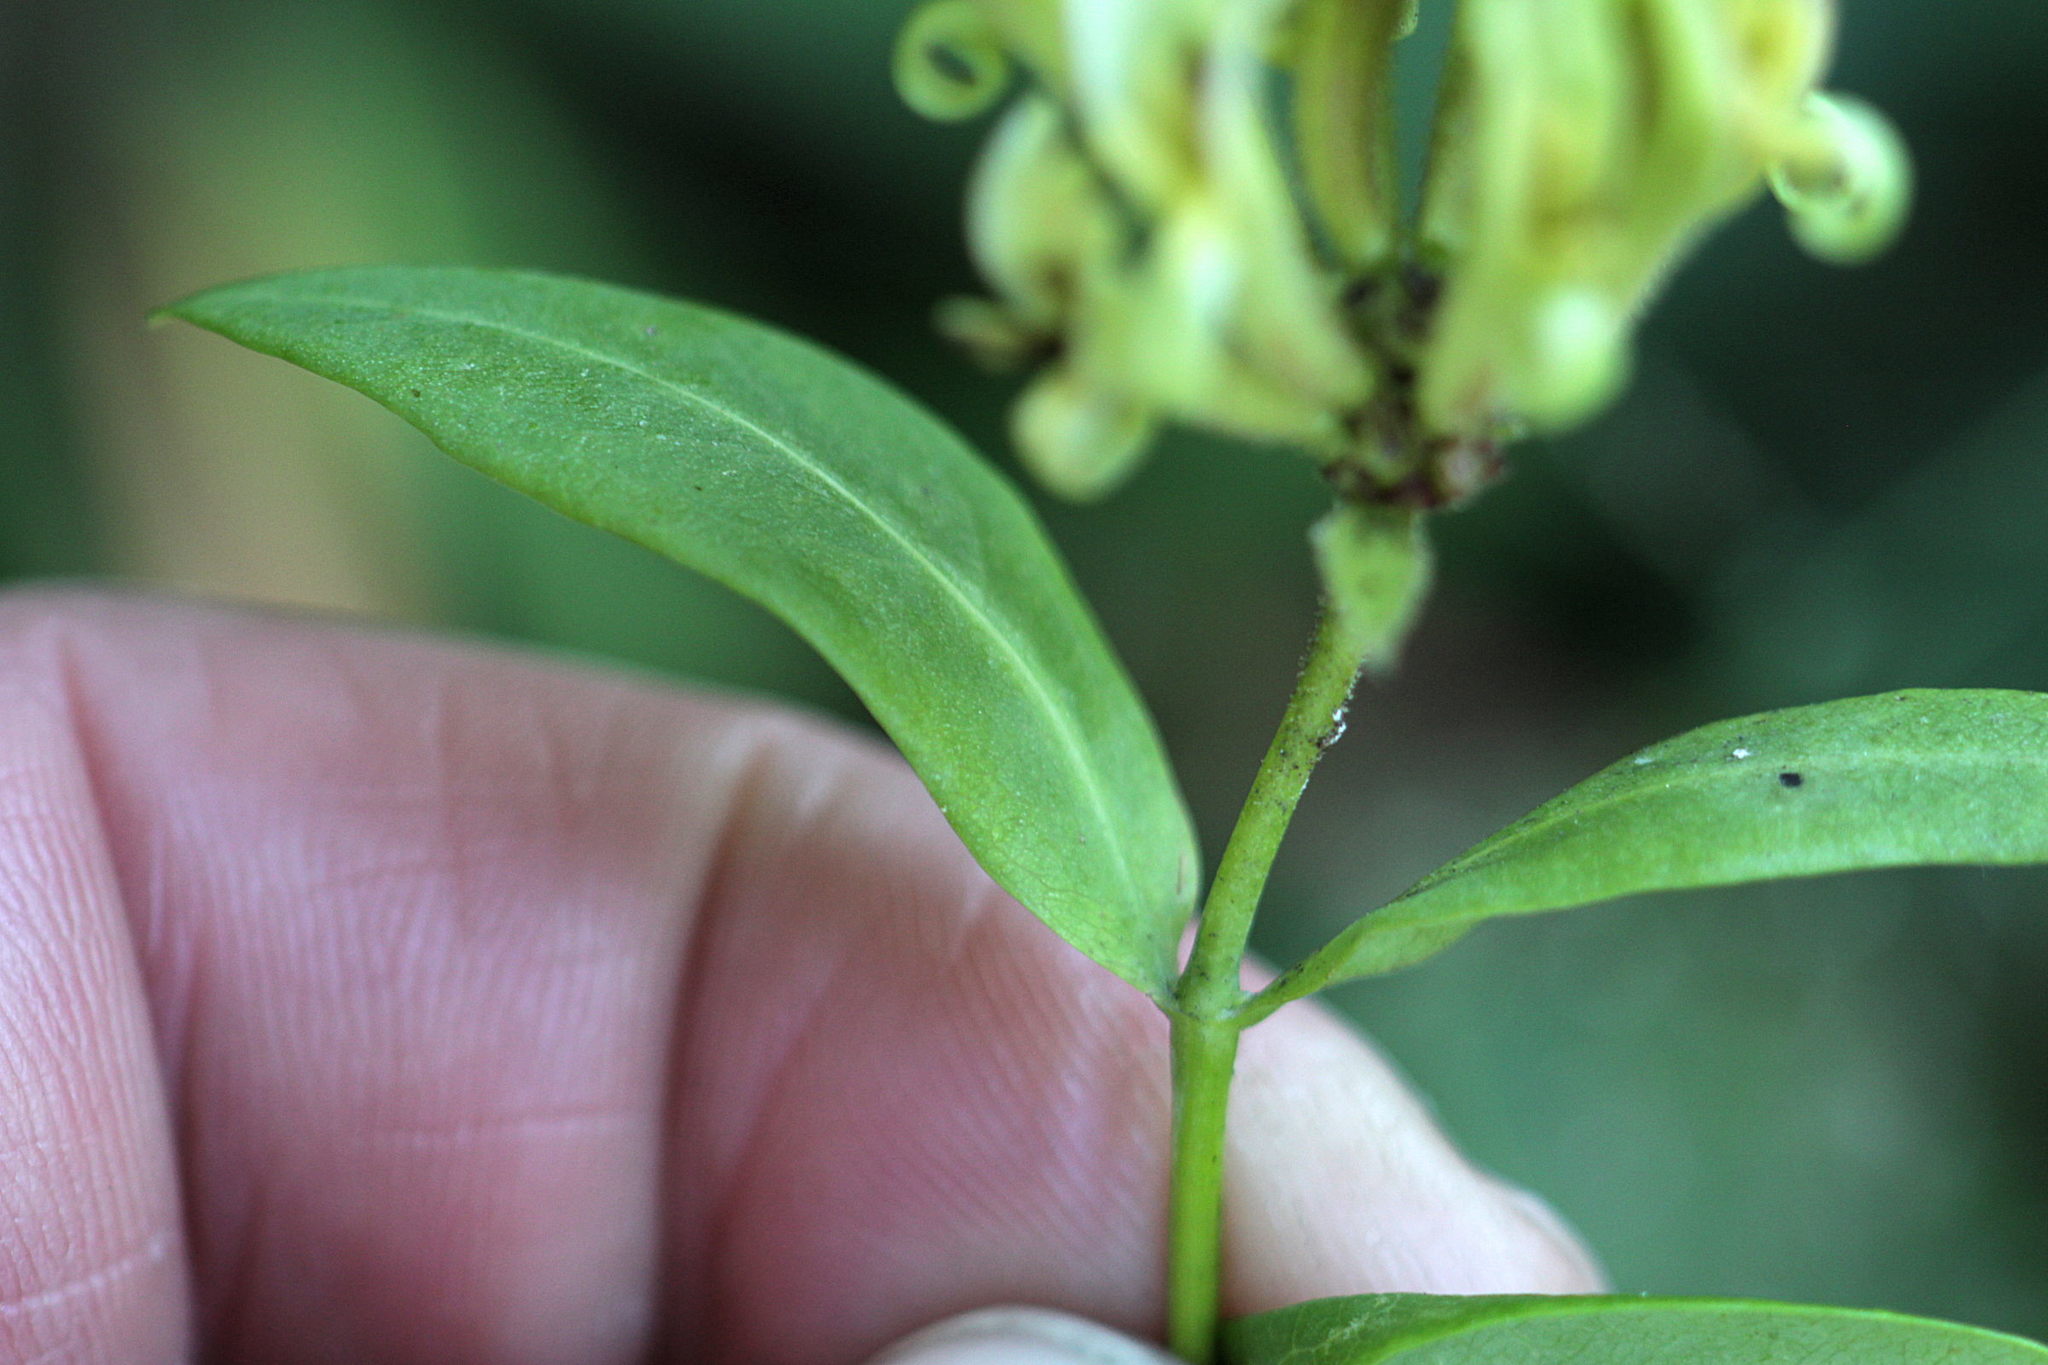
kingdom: Plantae
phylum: Tracheophyta
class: Magnoliopsida
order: Dipsacales
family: Caprifoliaceae
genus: Lonicera
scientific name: Lonicera periclymenum
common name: European honeysuckle
